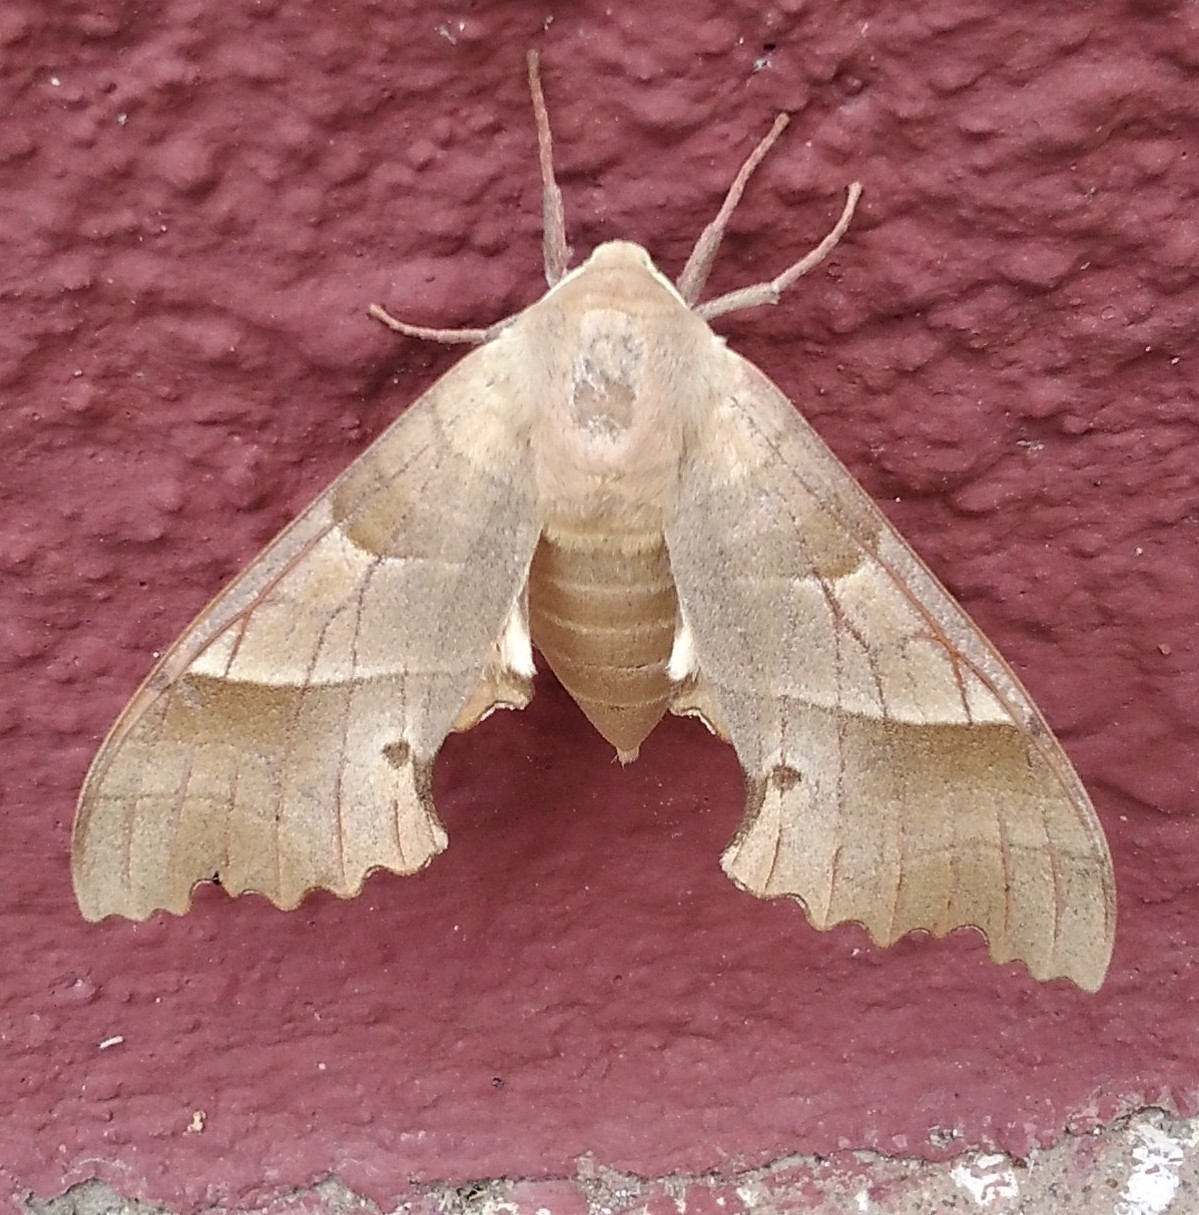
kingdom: Animalia
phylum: Arthropoda
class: Insecta
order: Lepidoptera
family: Sphingidae
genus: Marumba
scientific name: Marumba quercus
